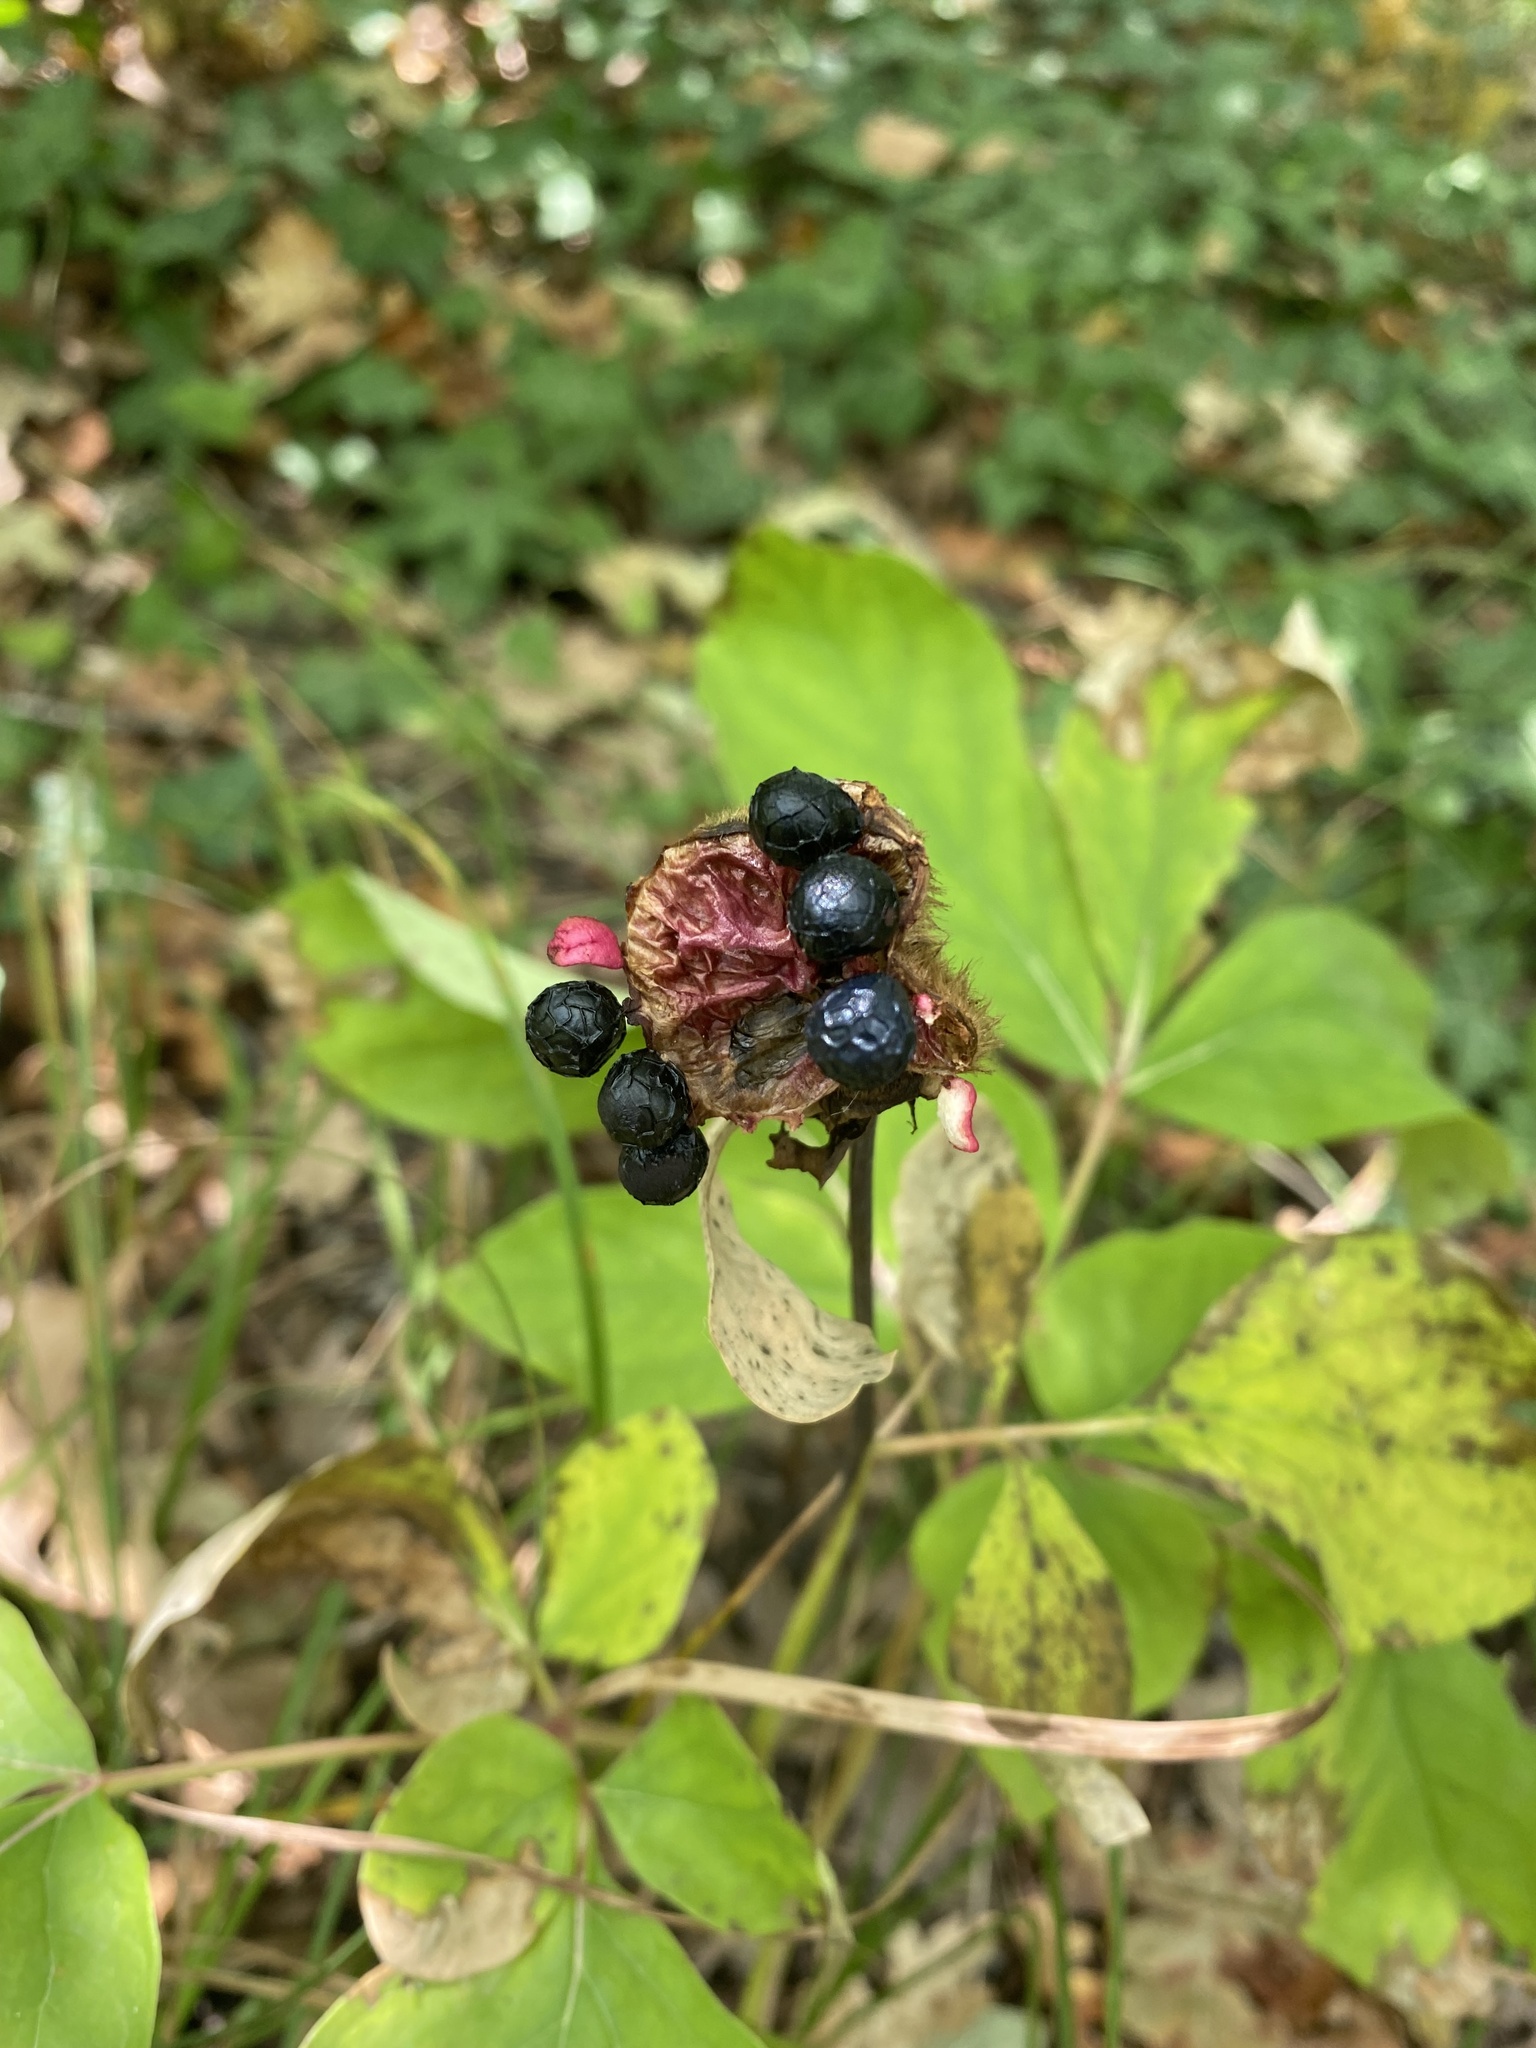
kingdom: Plantae
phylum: Tracheophyta
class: Magnoliopsida
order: Saxifragales
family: Paeoniaceae
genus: Paeonia
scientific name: Paeonia caucasica
